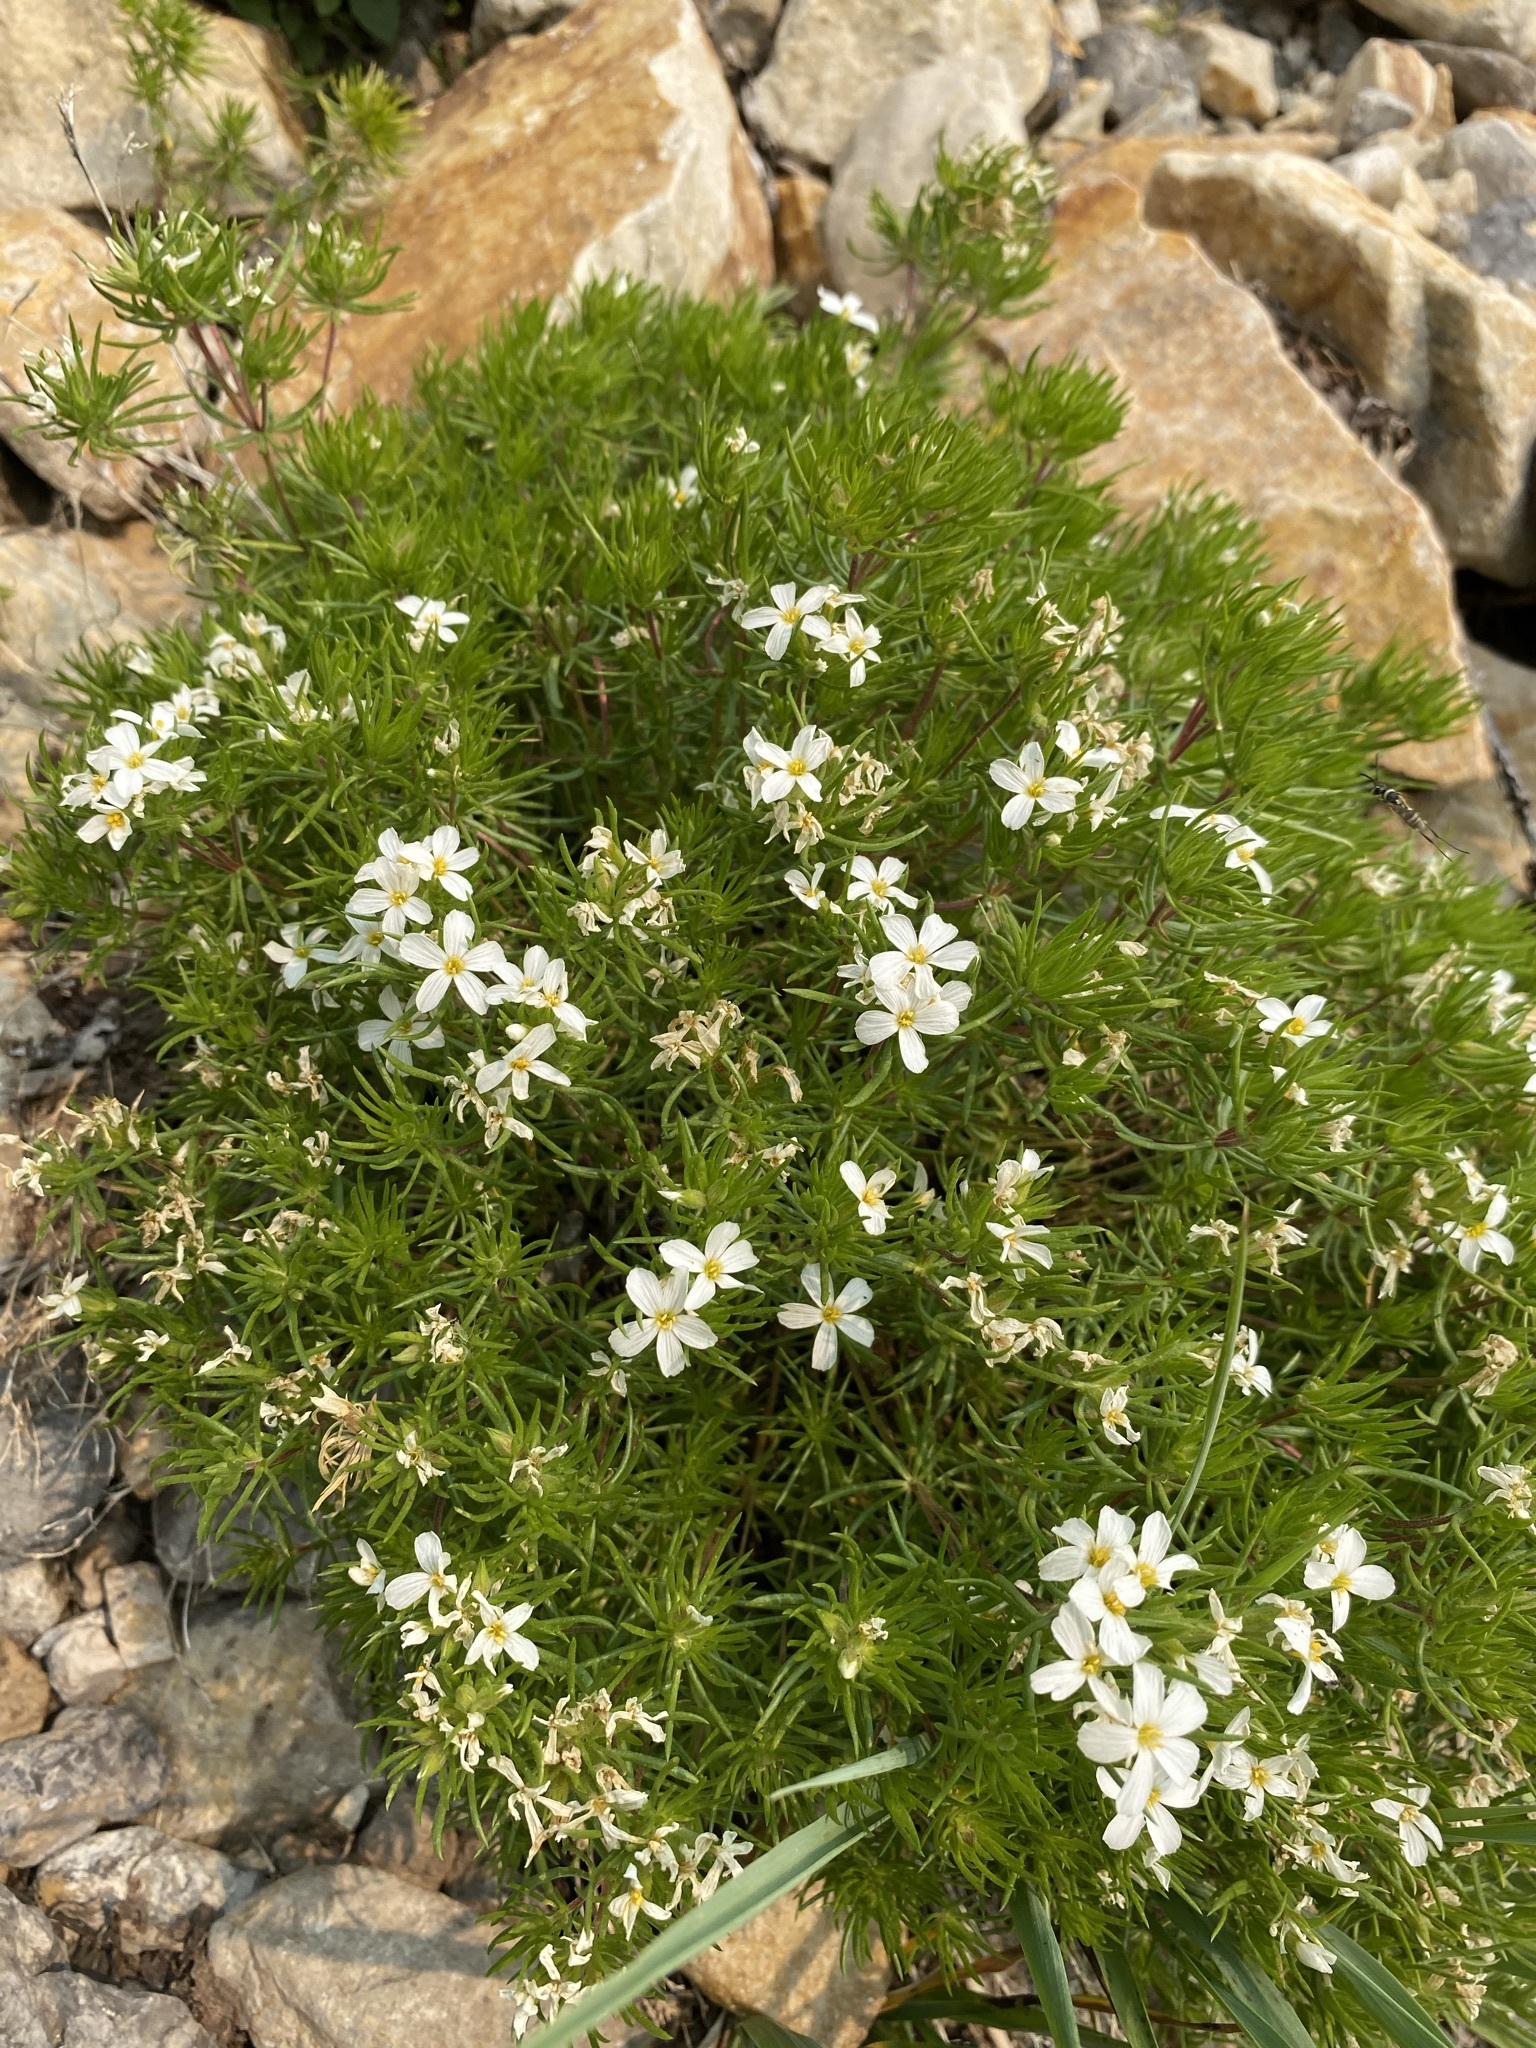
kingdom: Plantae
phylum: Tracheophyta
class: Magnoliopsida
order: Ericales
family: Polemoniaceae
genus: Leptosiphon
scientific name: Leptosiphon nuttallii
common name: Nuttall's linanthus
